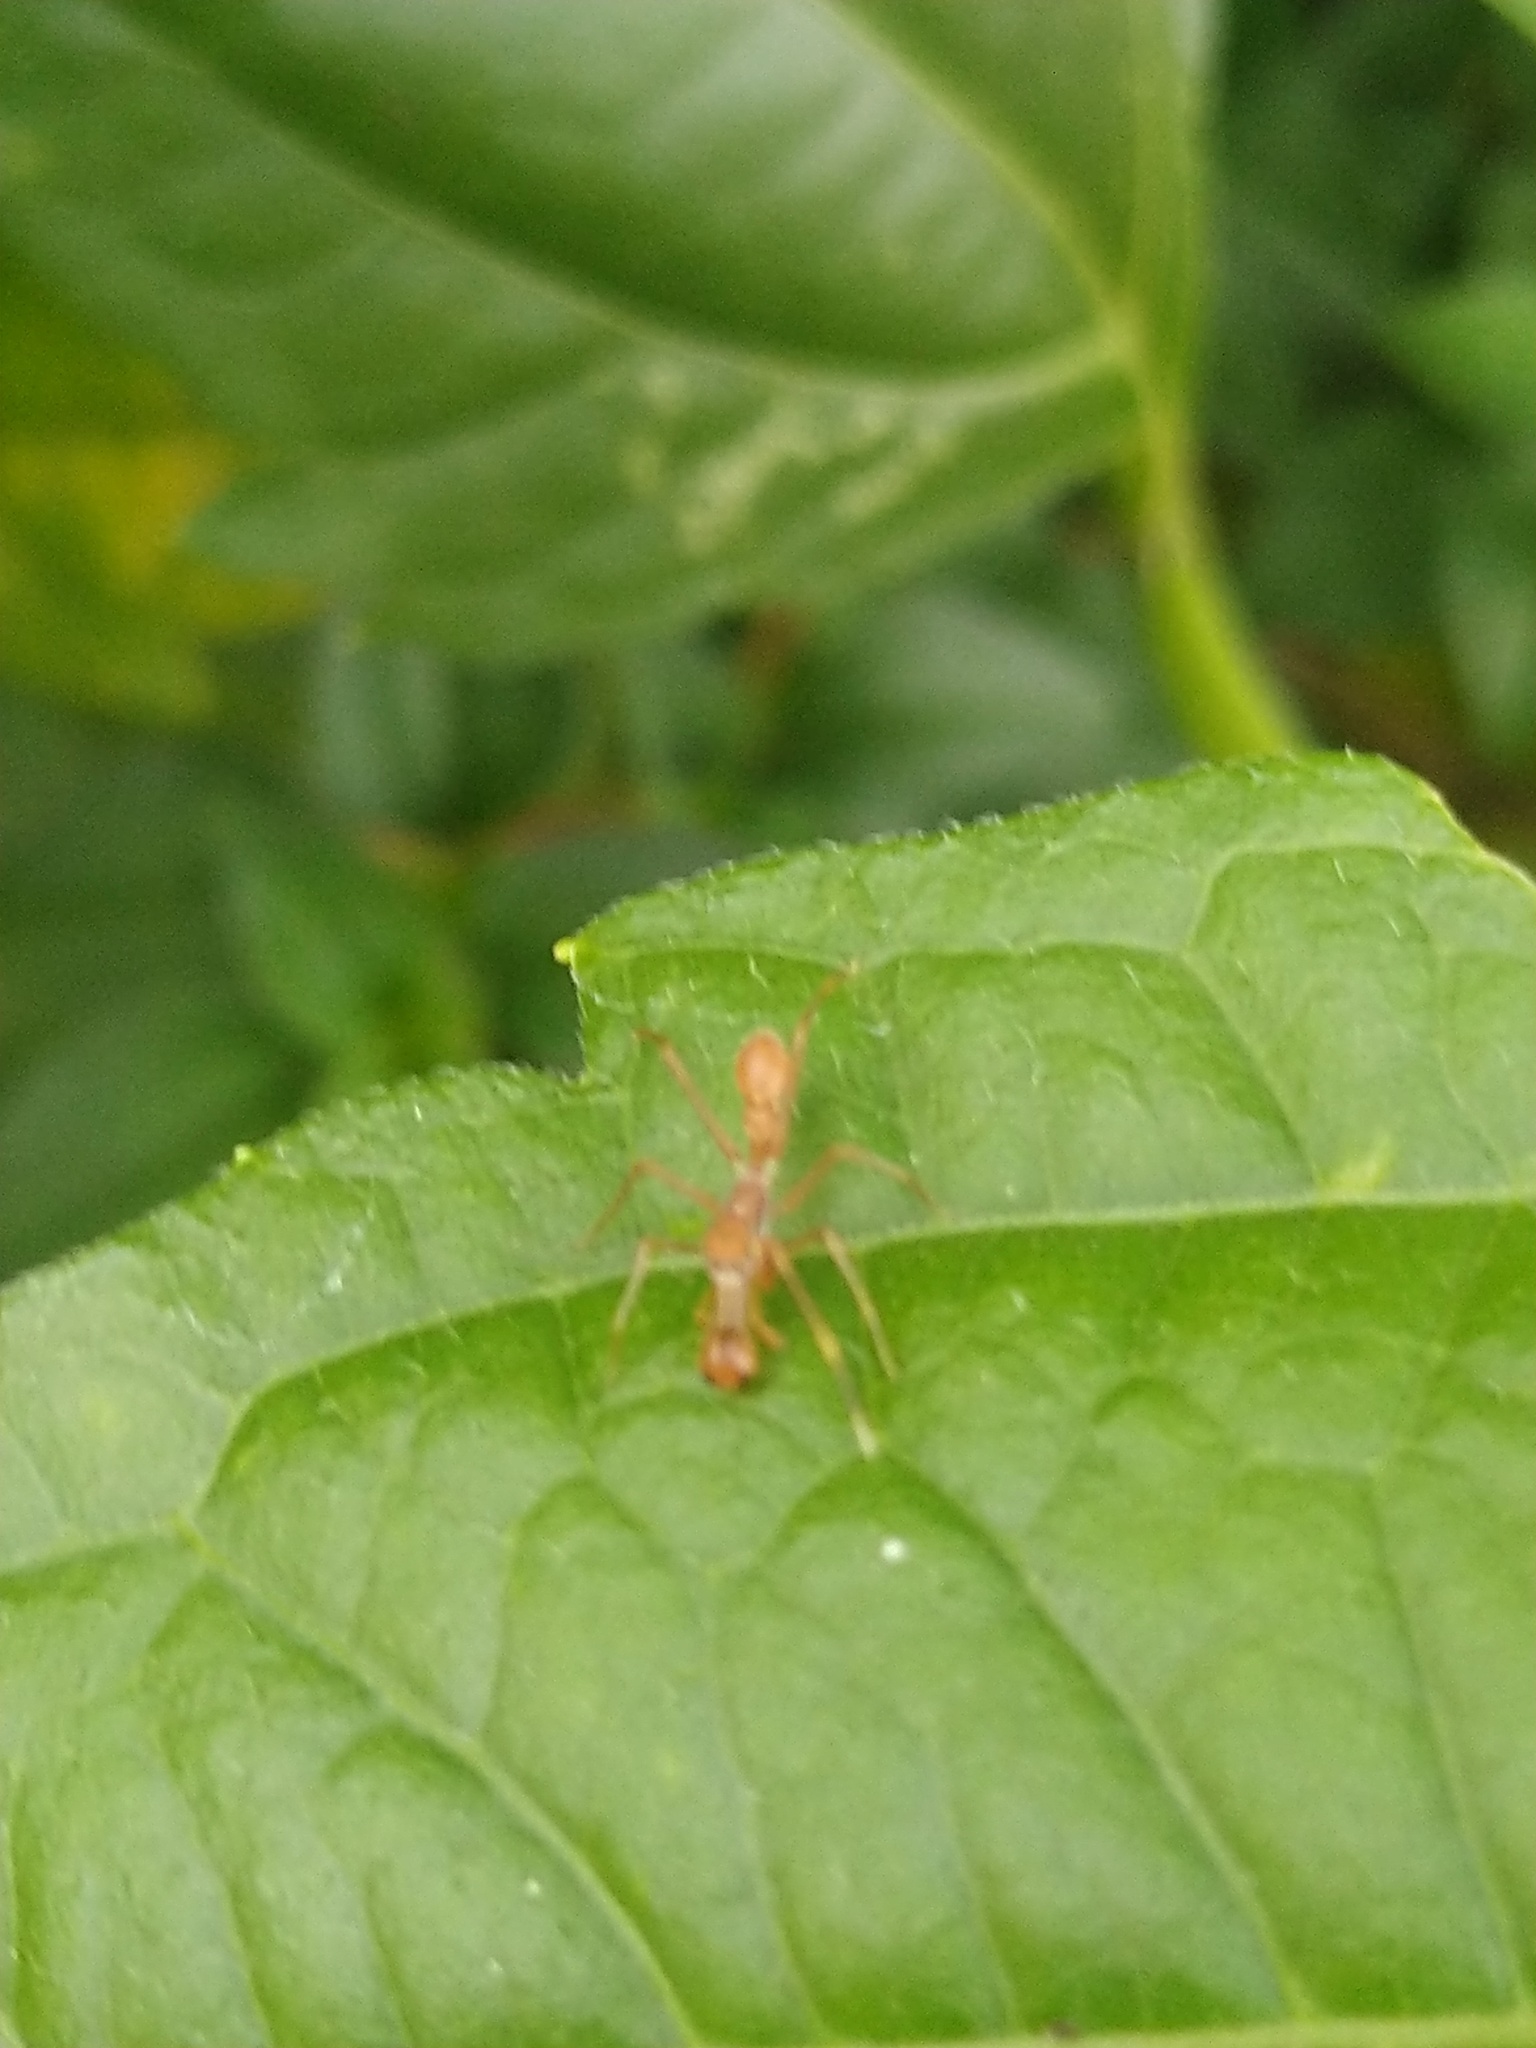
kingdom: Animalia
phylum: Arthropoda
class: Arachnida
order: Araneae
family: Salticidae
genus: Myrmaplata
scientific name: Myrmaplata plataleoides
